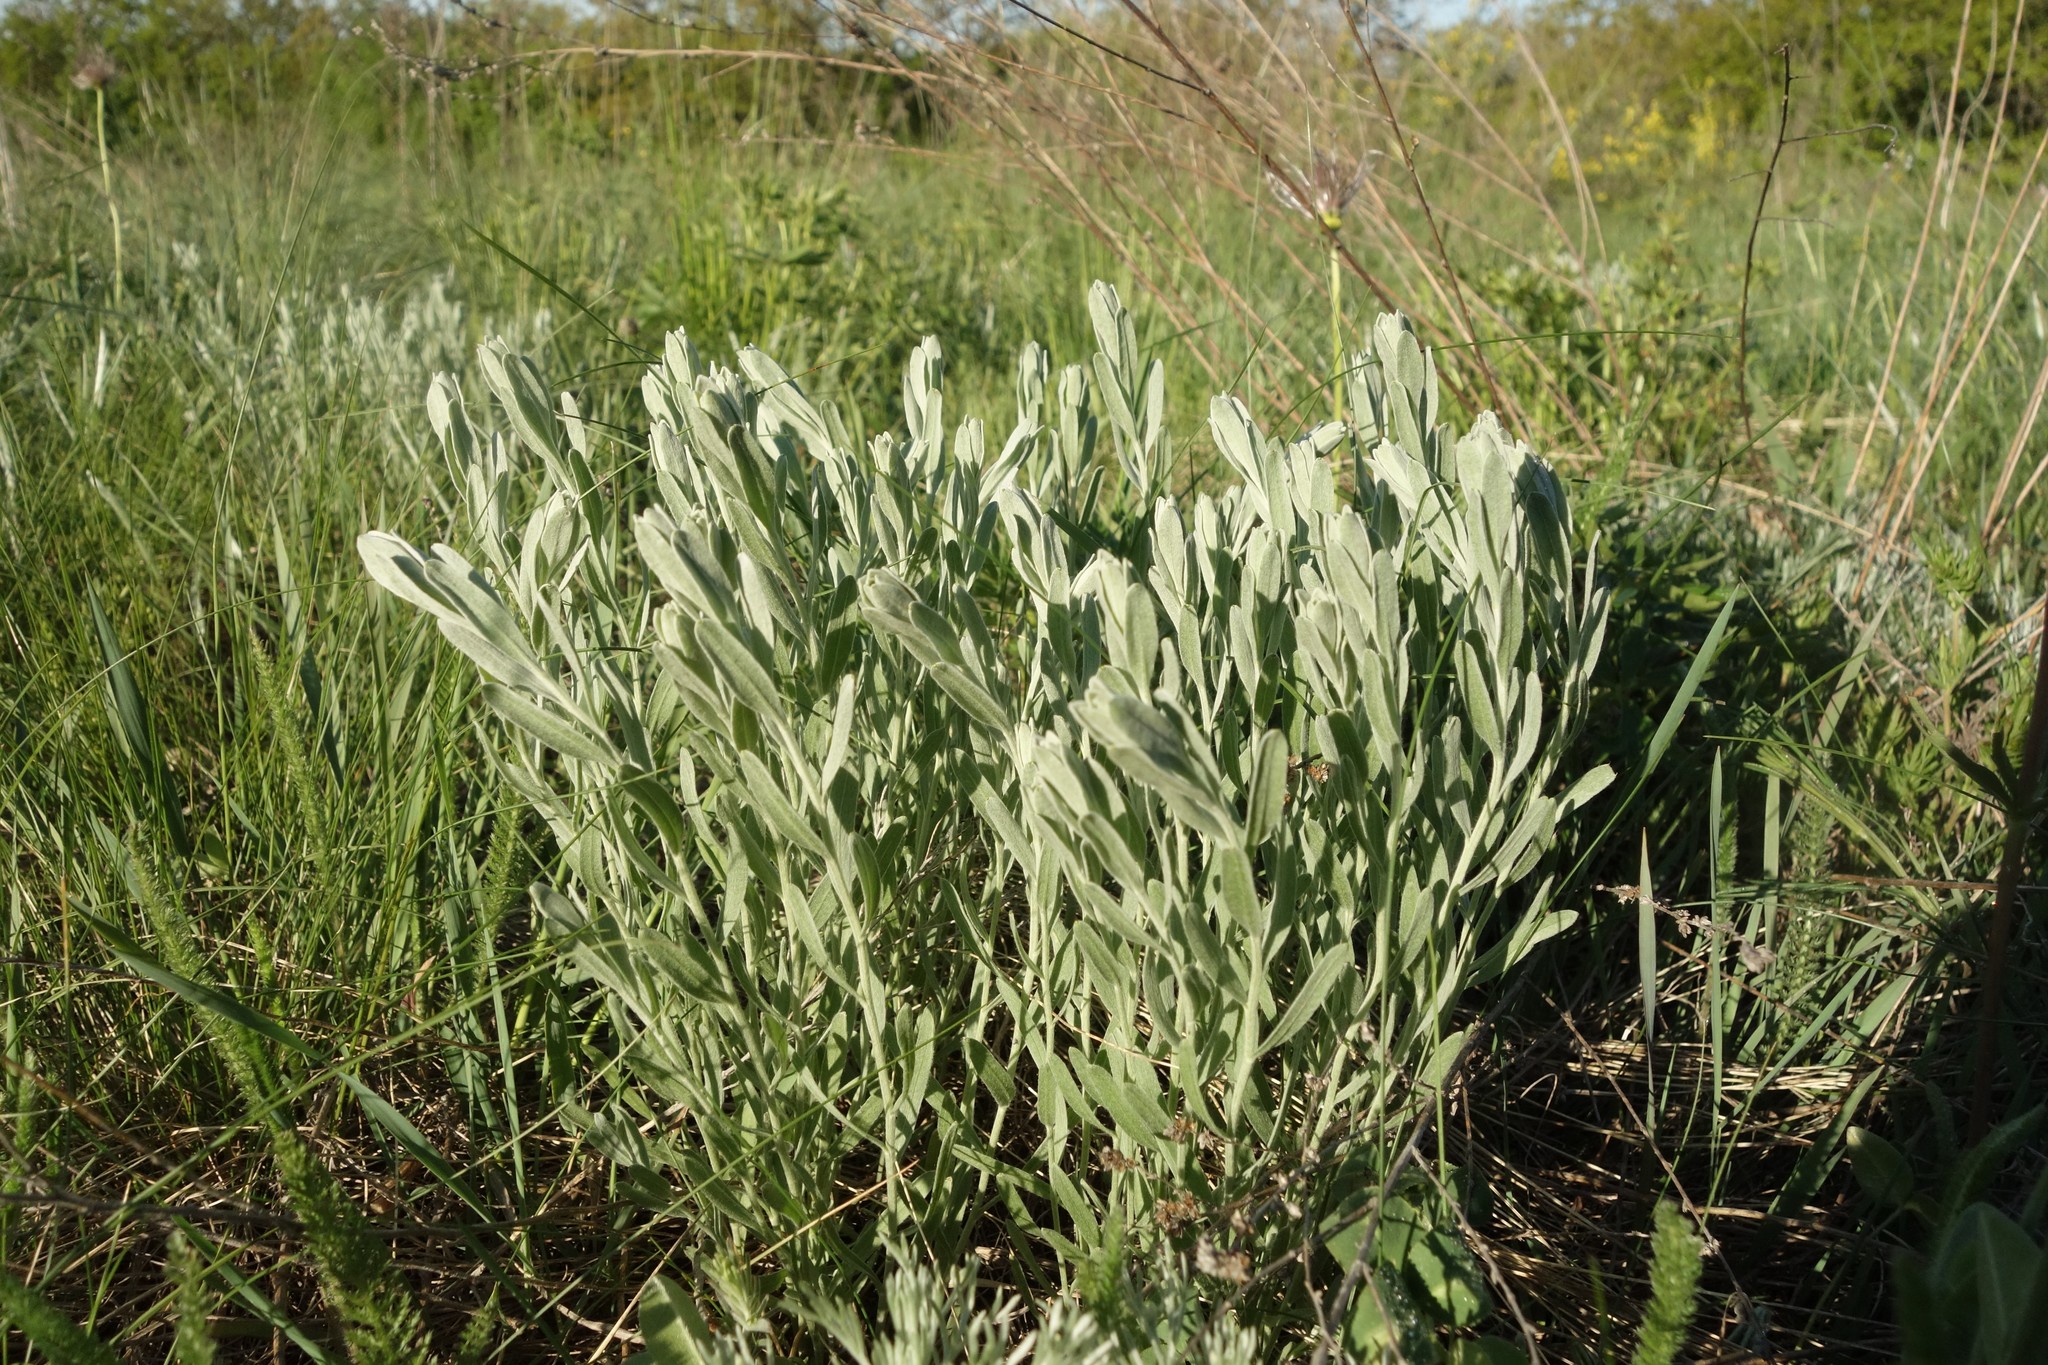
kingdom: Plantae
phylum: Tracheophyta
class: Magnoliopsida
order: Asterales
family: Asteraceae
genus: Galatella
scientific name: Galatella villosa
